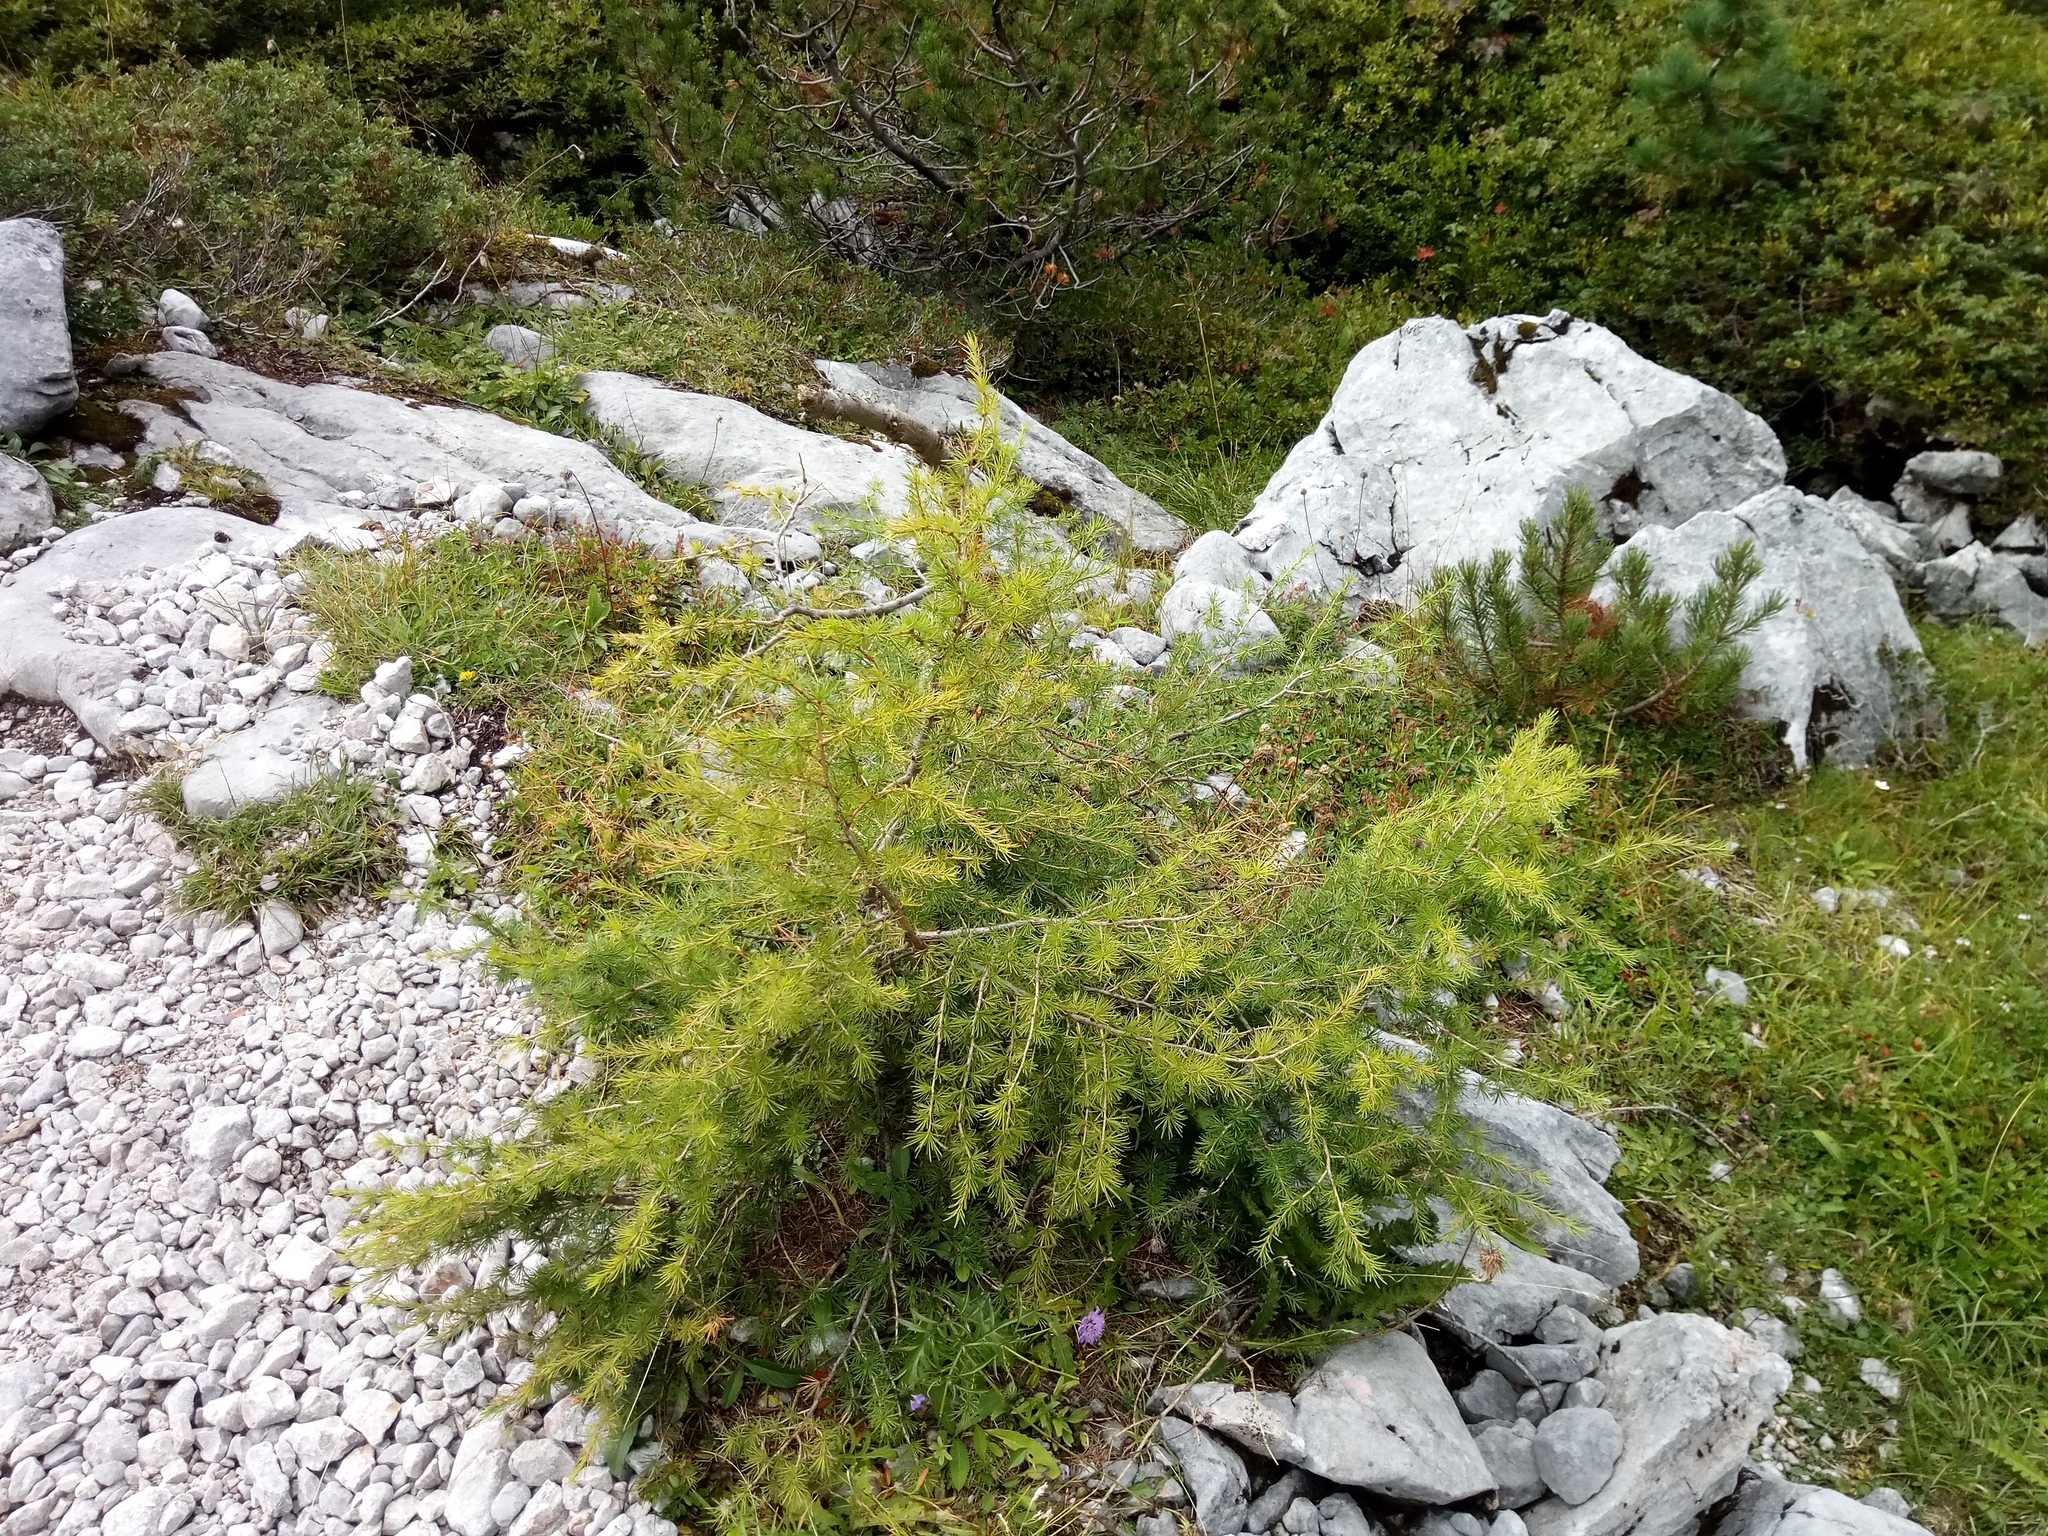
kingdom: Plantae
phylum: Tracheophyta
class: Pinopsida
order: Pinales
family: Pinaceae
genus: Larix
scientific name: Larix decidua
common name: European larch
